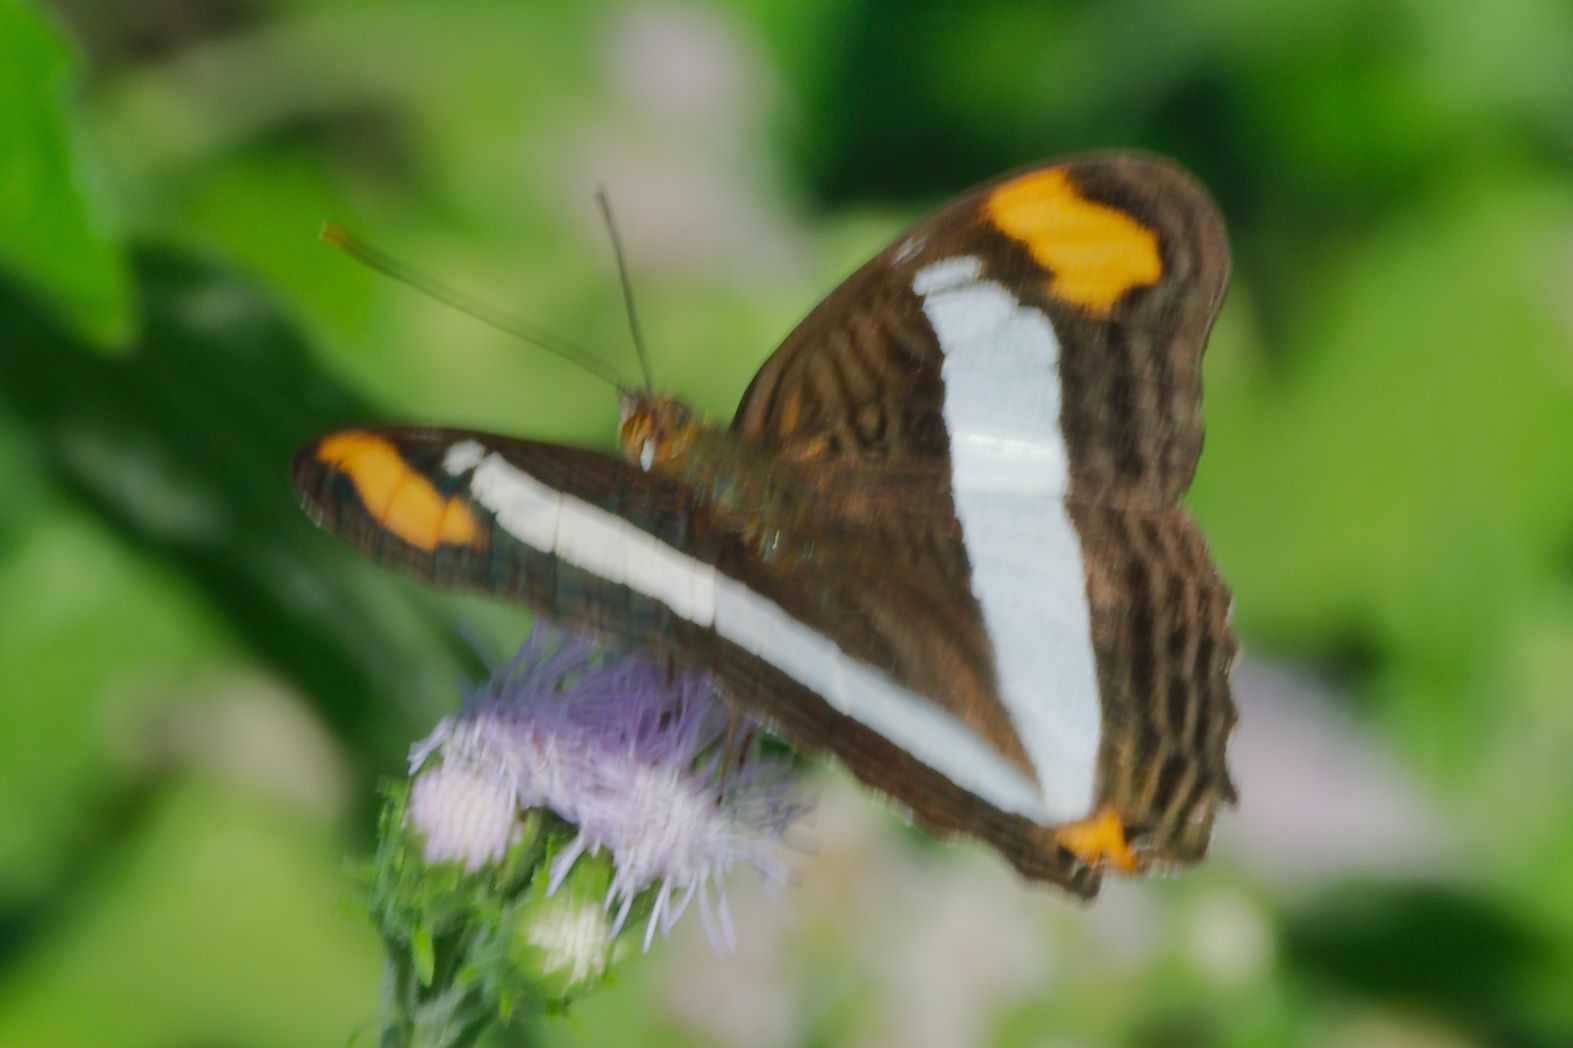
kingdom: Animalia
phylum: Arthropoda
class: Insecta
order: Lepidoptera
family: Nymphalidae
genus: Limenitis
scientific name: Limenitis Adelpha basiloides
